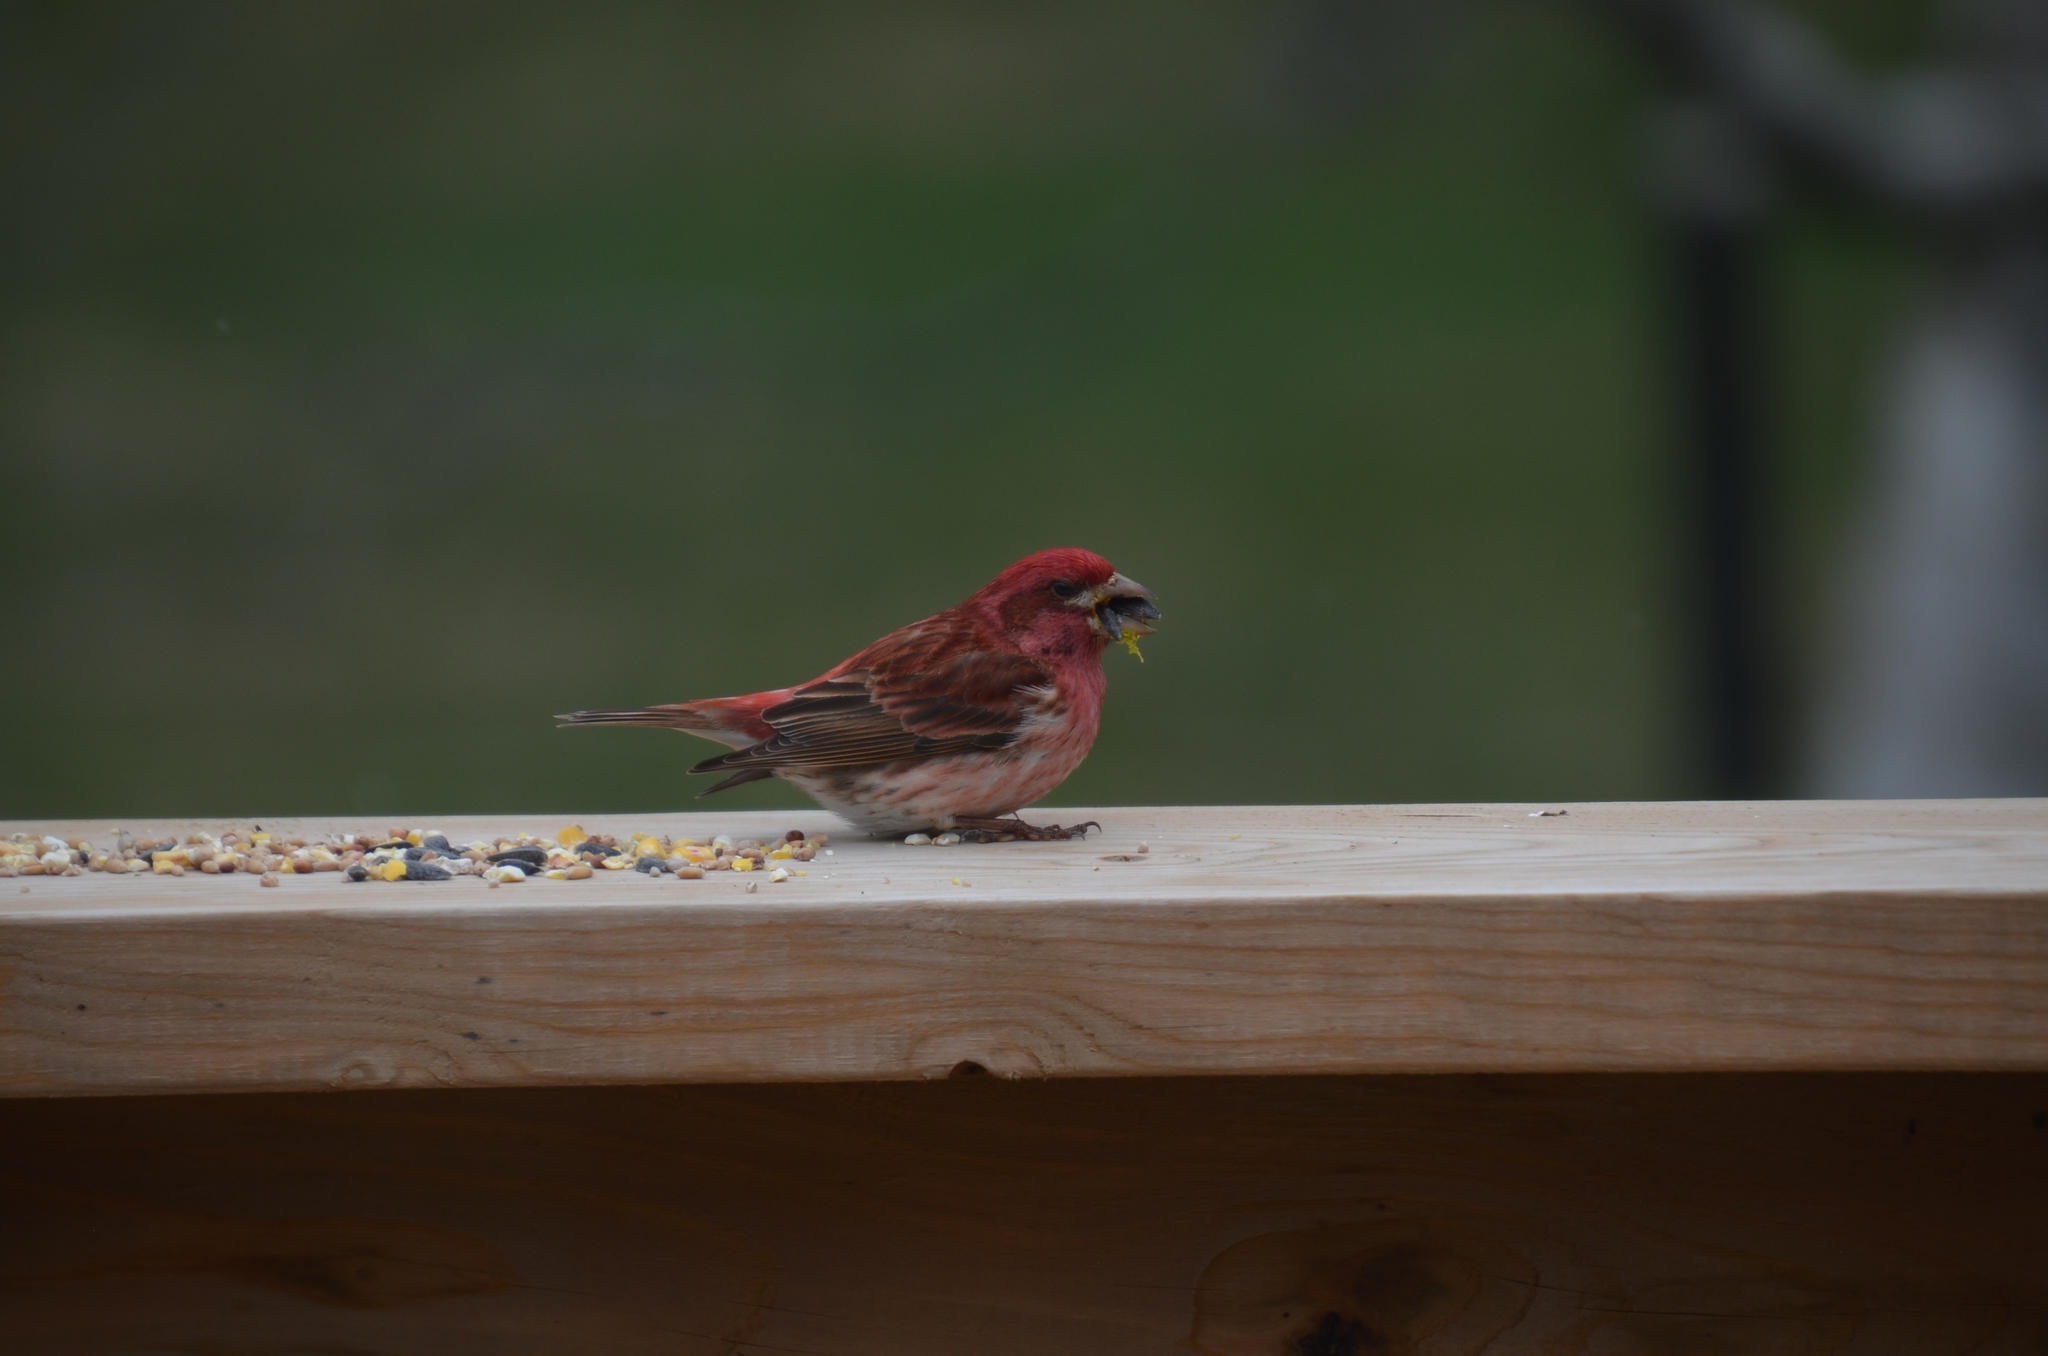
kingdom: Animalia
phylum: Chordata
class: Aves
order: Passeriformes
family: Fringillidae
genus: Haemorhous
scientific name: Haemorhous purpureus
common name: Purple finch
